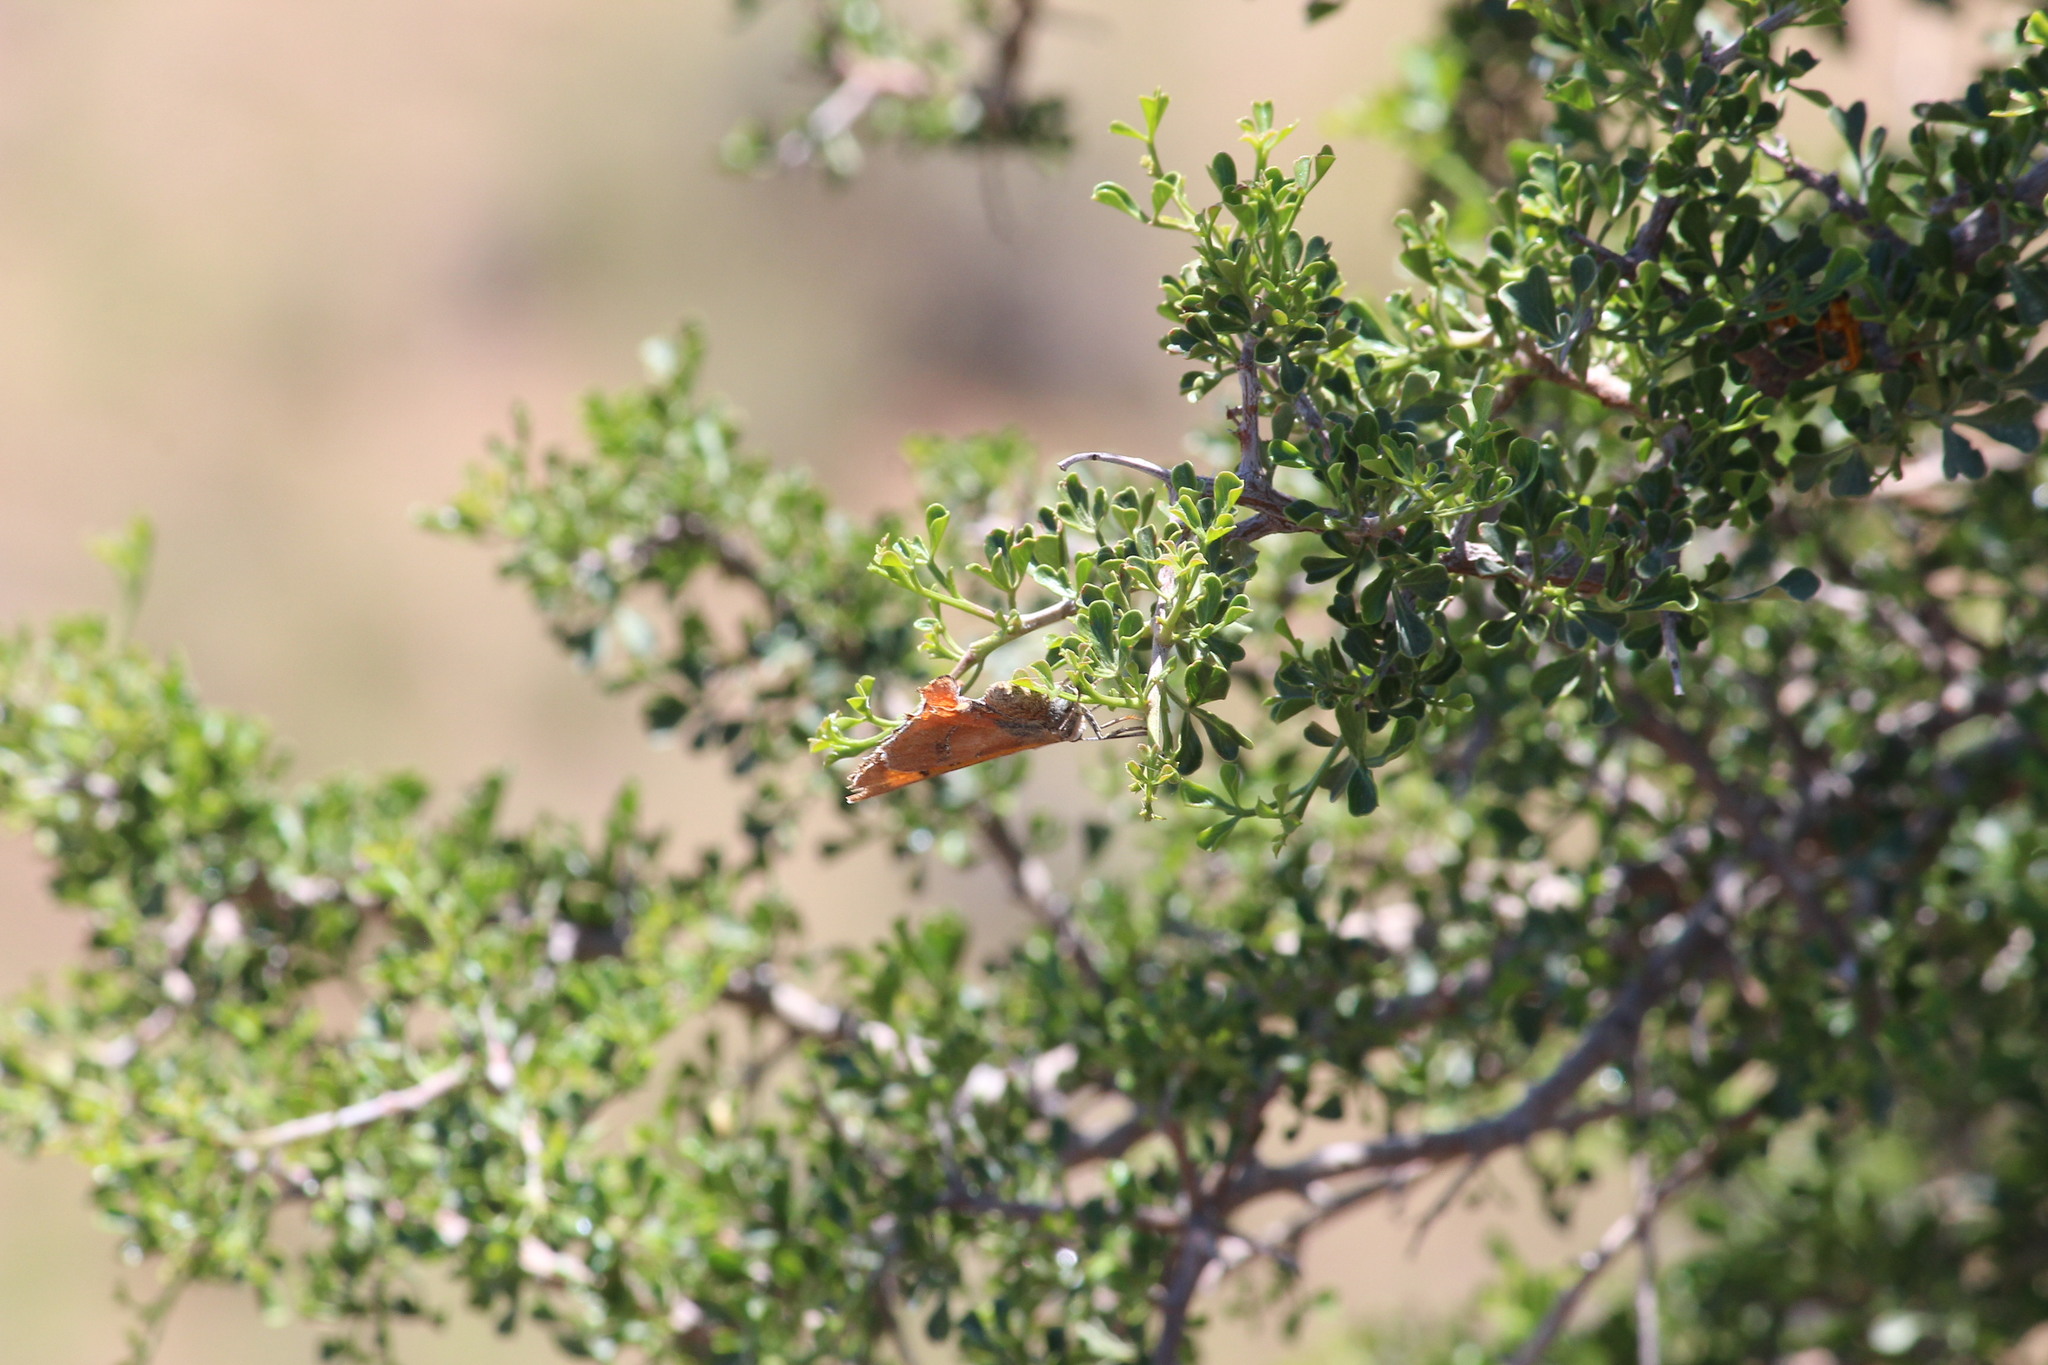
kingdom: Animalia
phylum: Arthropoda
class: Insecta
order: Lepidoptera
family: Lycaenidae
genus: Tylopaedia
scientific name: Tylopaedia sardonyx
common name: King copper
